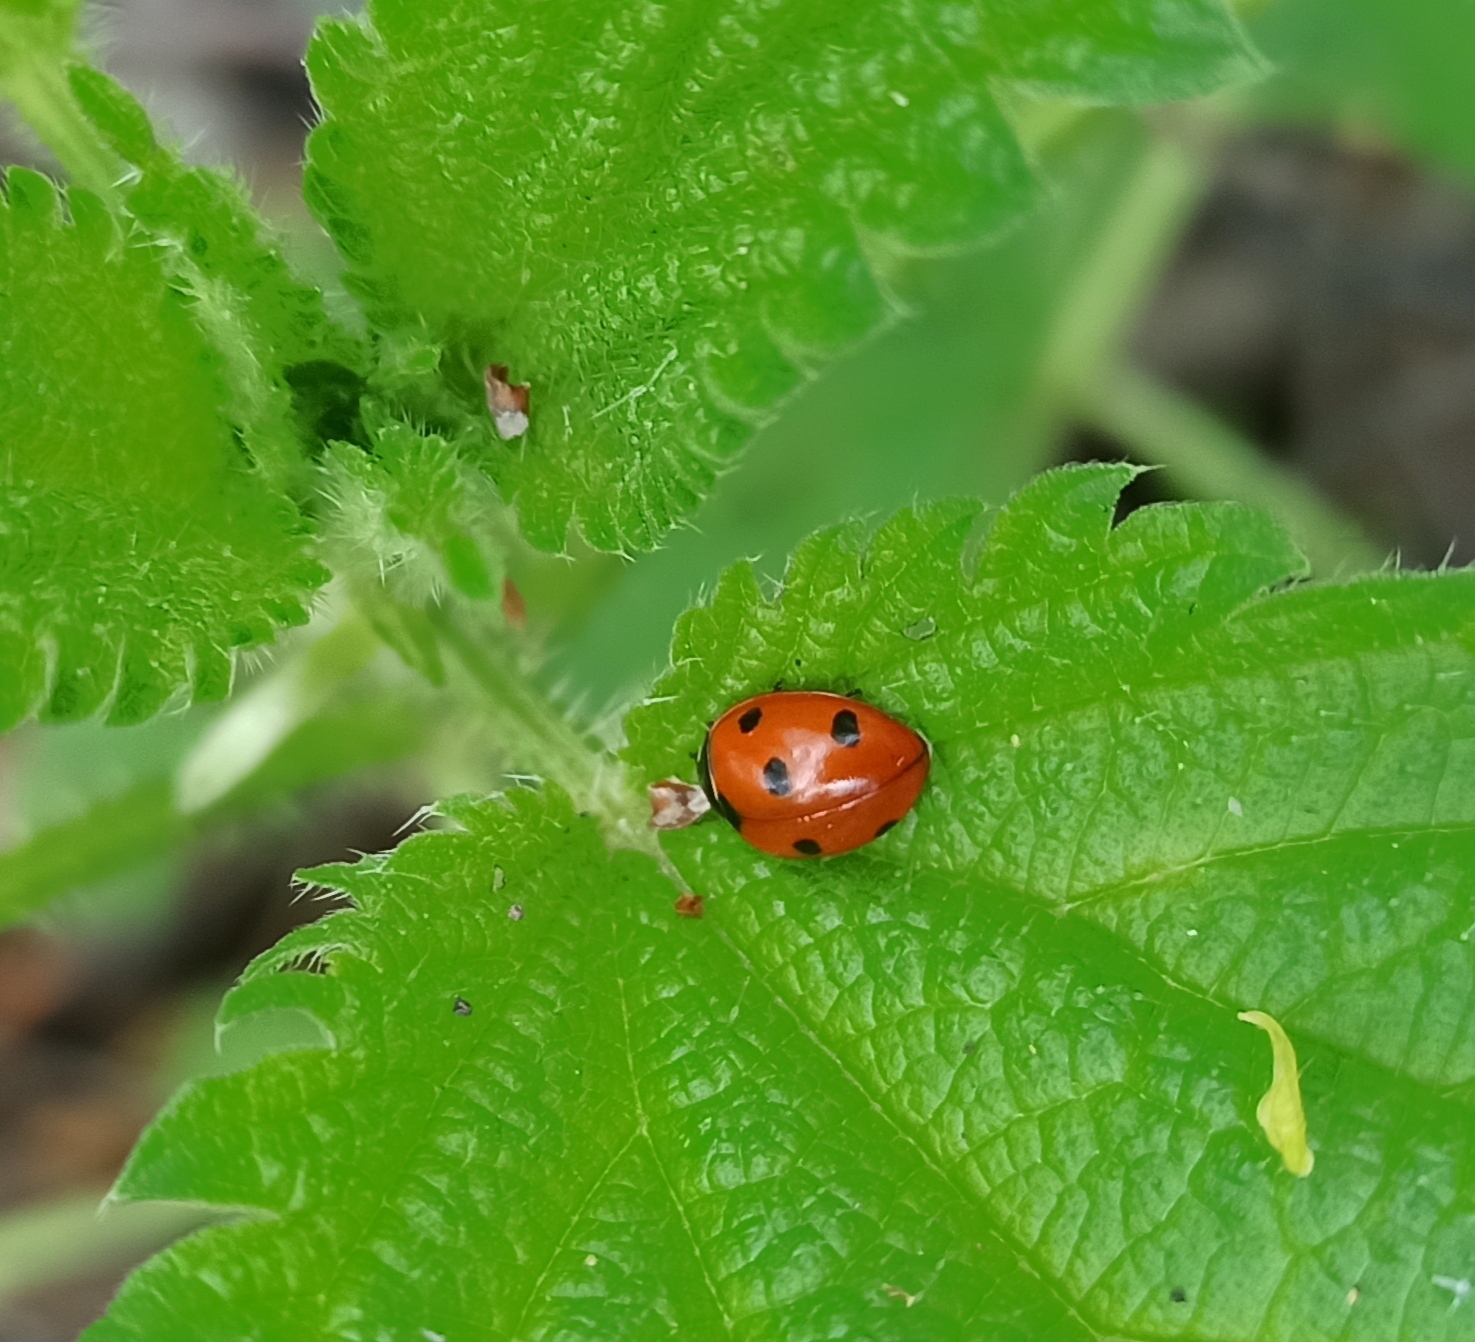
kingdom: Animalia
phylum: Arthropoda
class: Insecta
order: Coleoptera
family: Coccinellidae
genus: Coccinella
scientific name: Coccinella septempunctata
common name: Sevenspotted lady beetle
